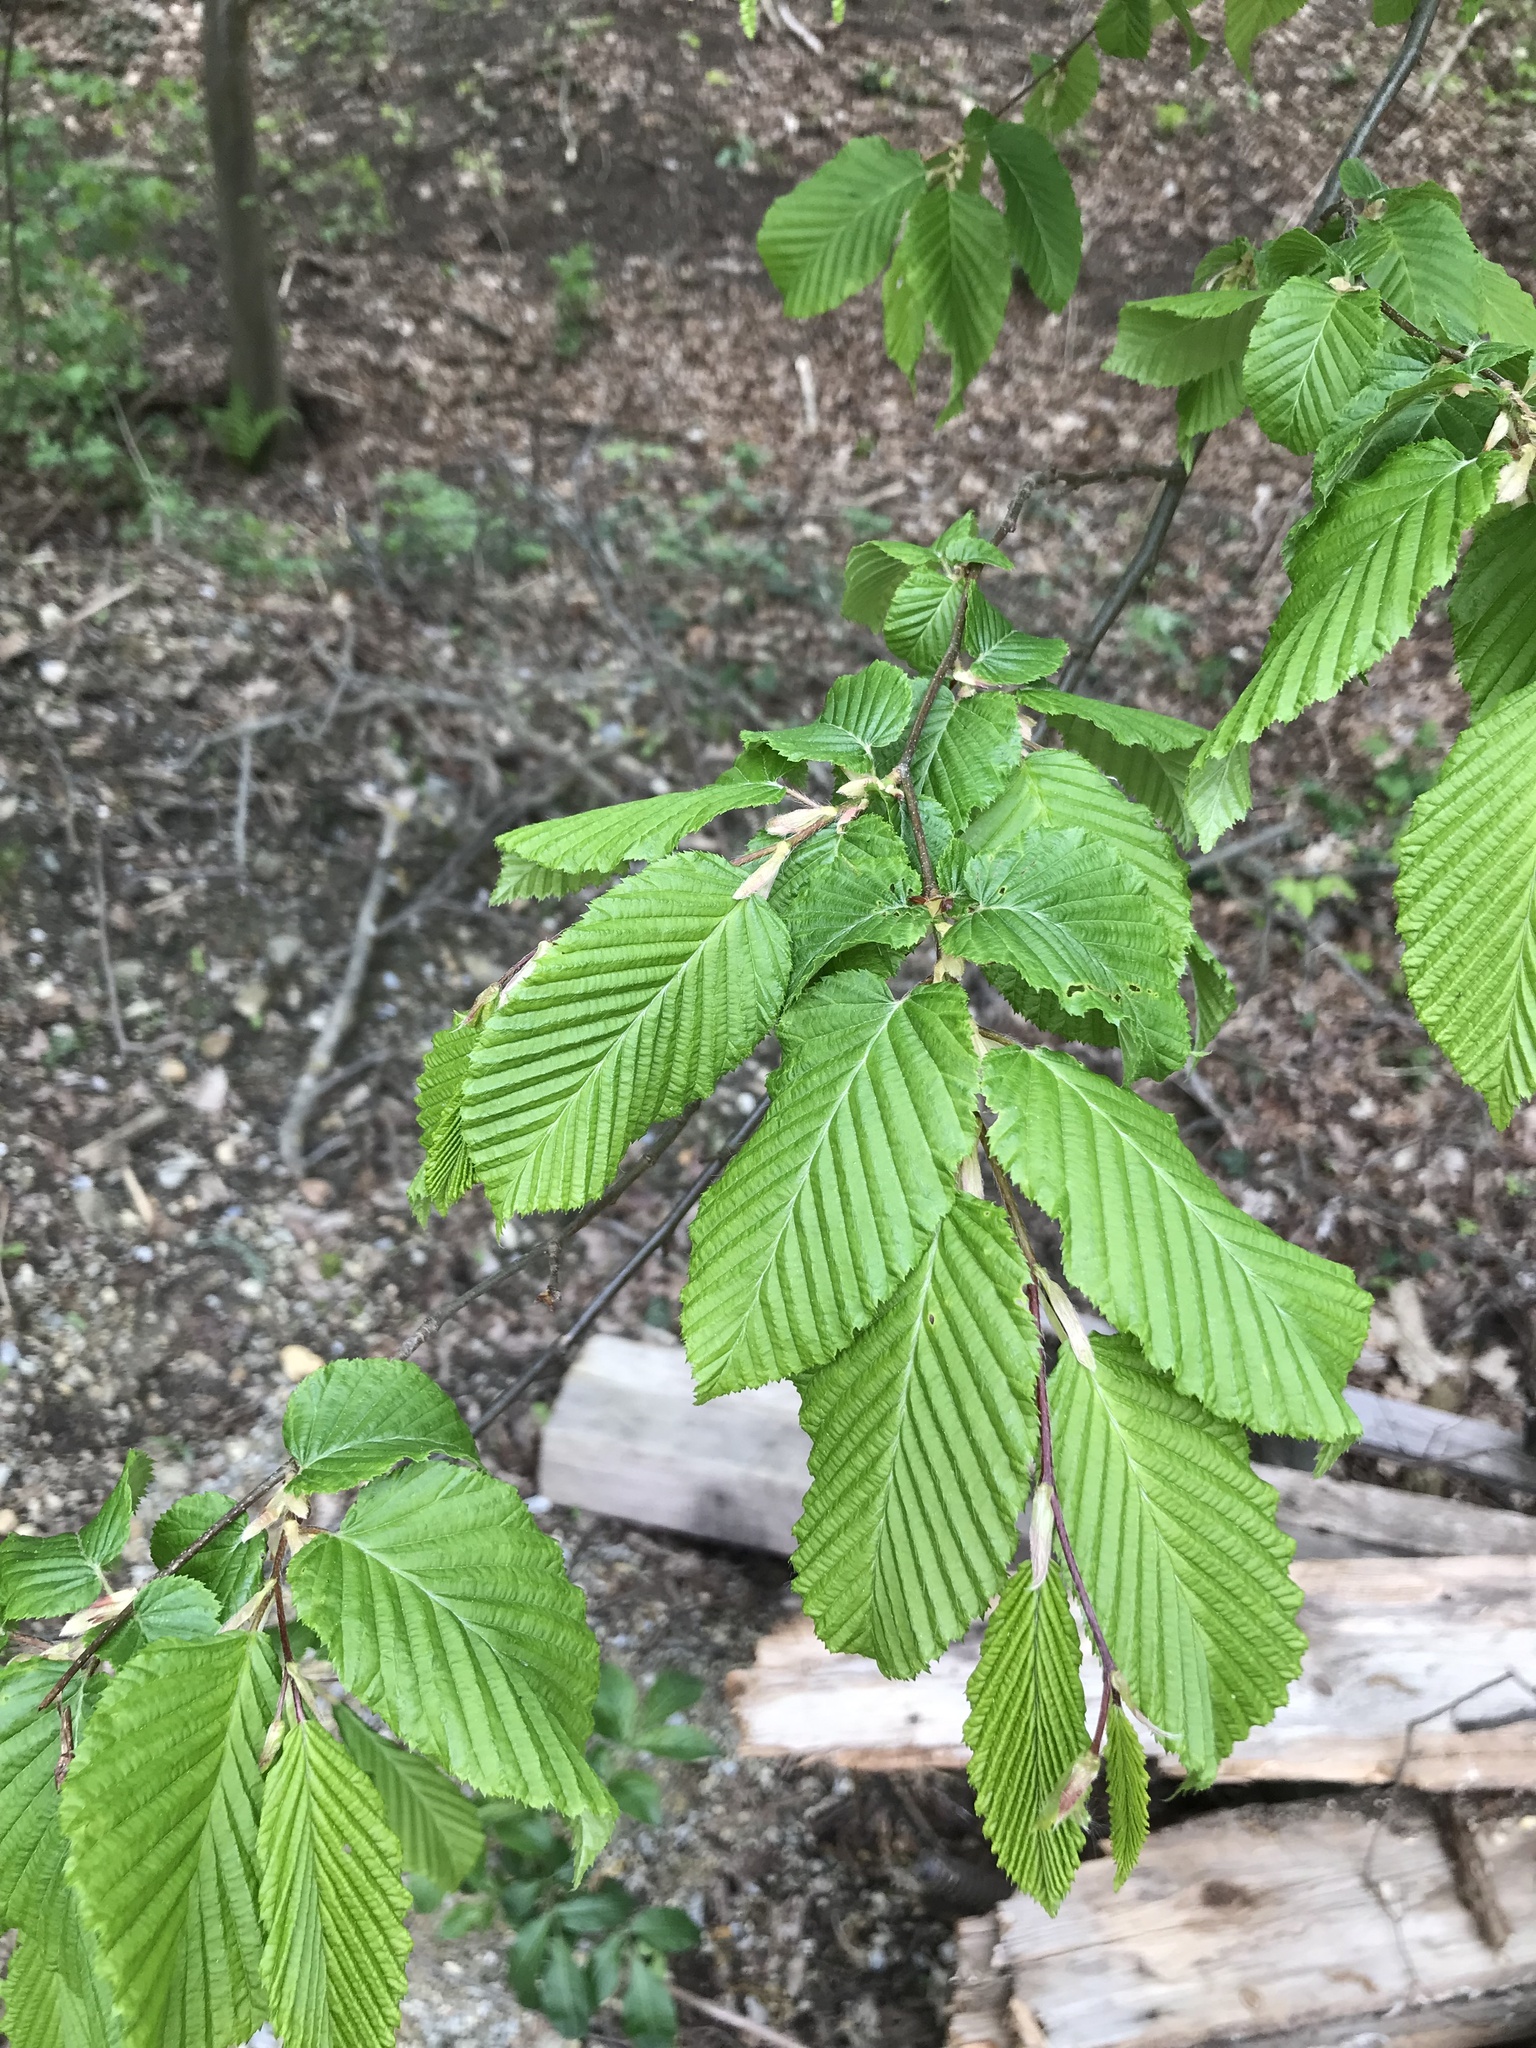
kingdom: Plantae
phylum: Tracheophyta
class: Magnoliopsida
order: Fagales
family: Betulaceae
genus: Carpinus
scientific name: Carpinus betulus
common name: Hornbeam
